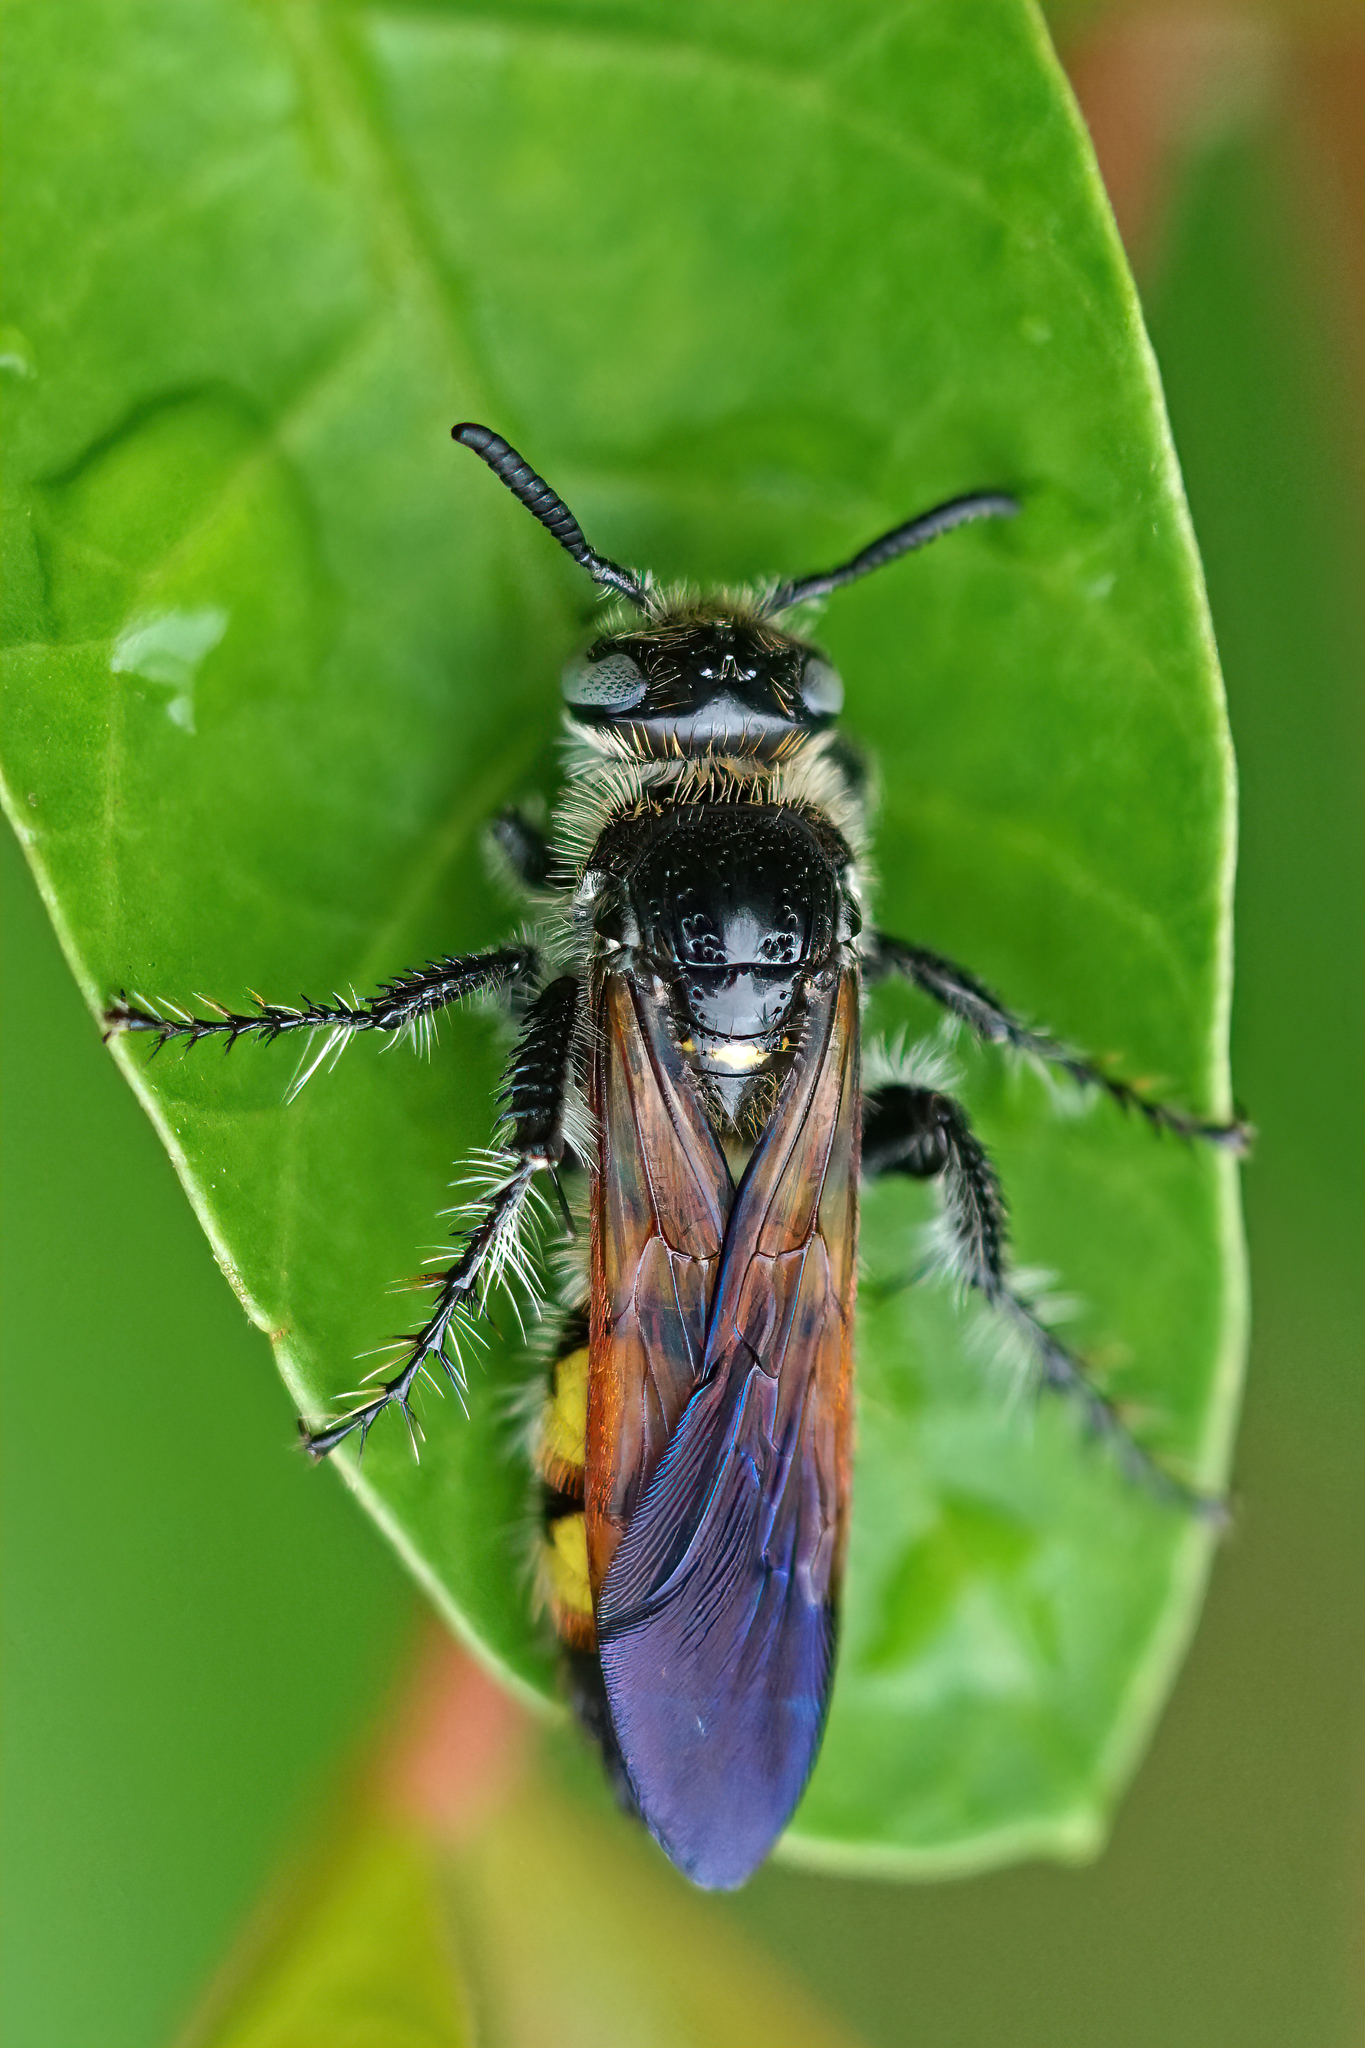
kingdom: Animalia
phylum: Arthropoda
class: Insecta
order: Hymenoptera
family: Scoliidae
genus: Dielis
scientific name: Dielis
